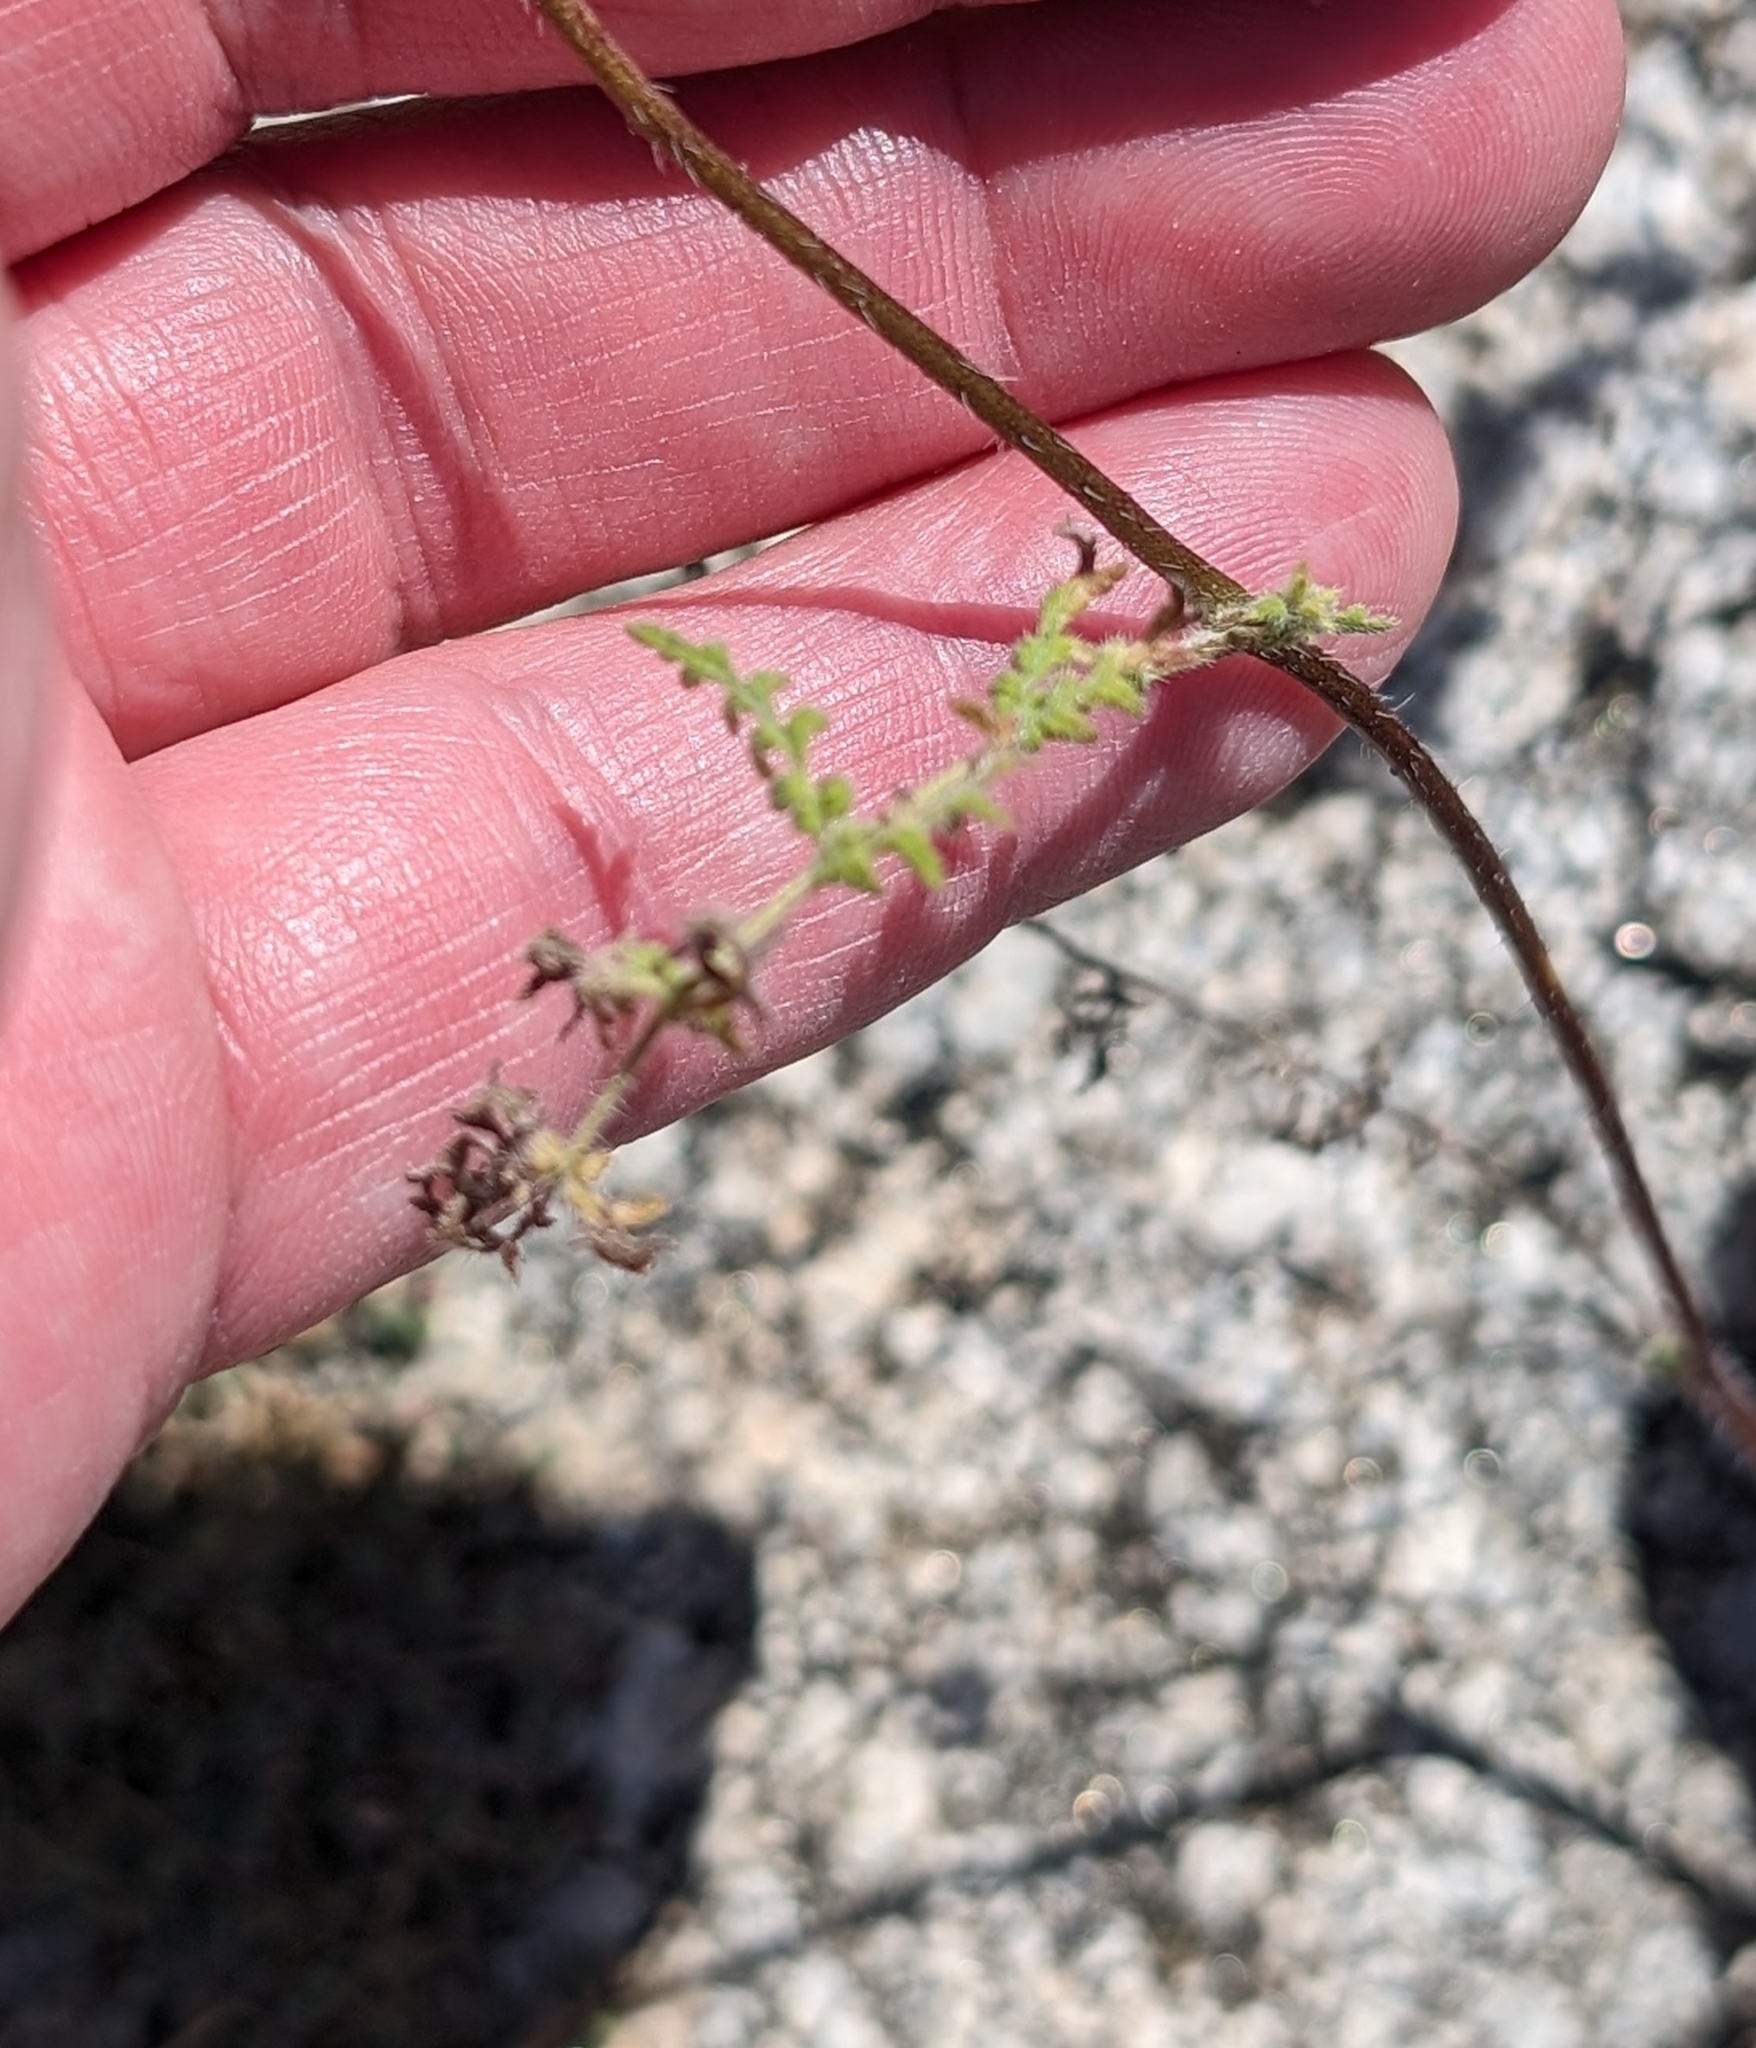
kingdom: Plantae
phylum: Tracheophyta
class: Magnoliopsida
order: Boraginales
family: Hydrophyllaceae
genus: Phacelia
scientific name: Phacelia distans
